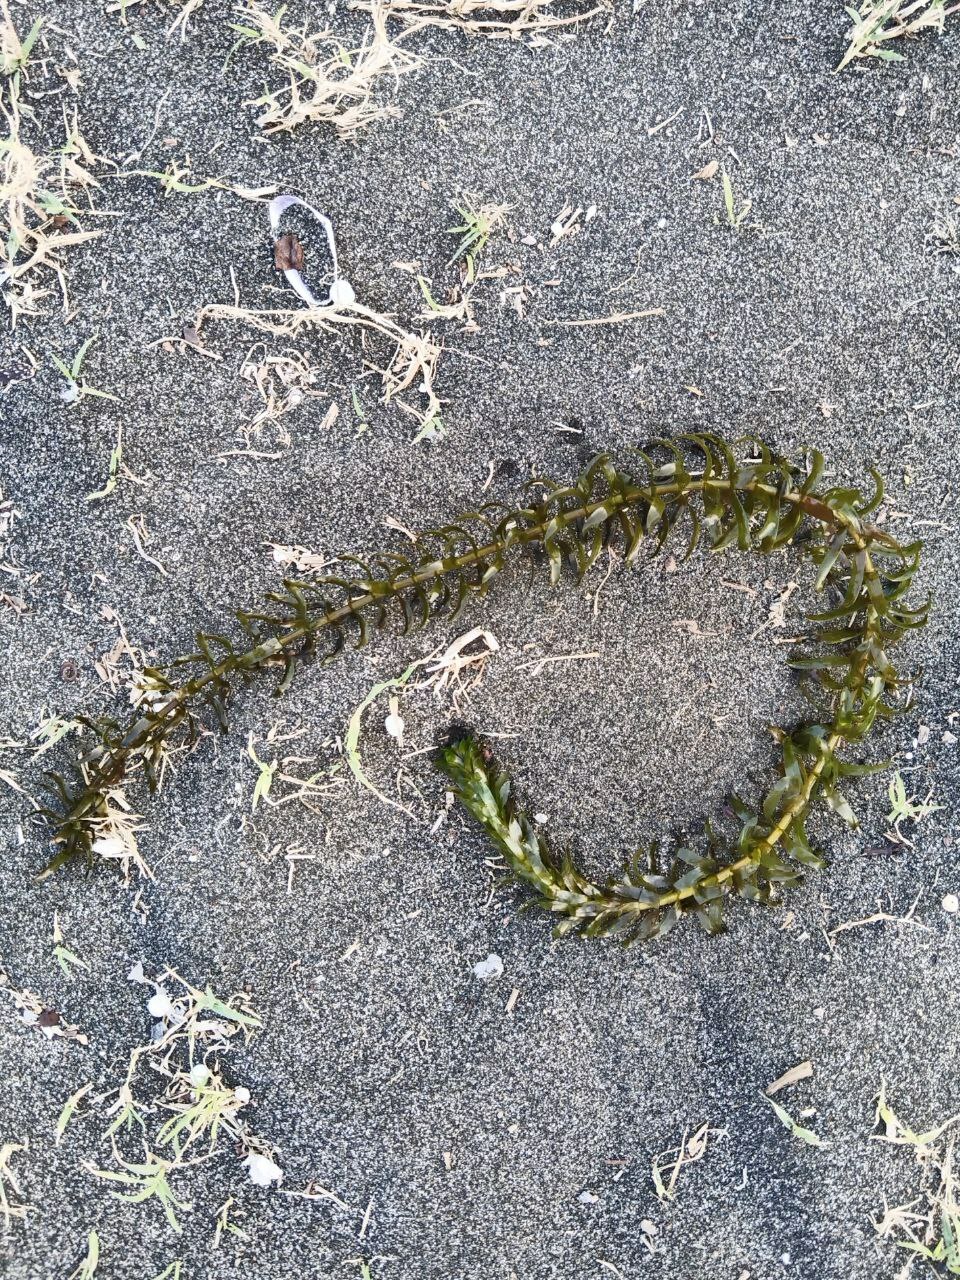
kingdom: Plantae
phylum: Tracheophyta
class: Liliopsida
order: Alismatales
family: Hydrocharitaceae
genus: Elodea
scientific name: Elodea densa
